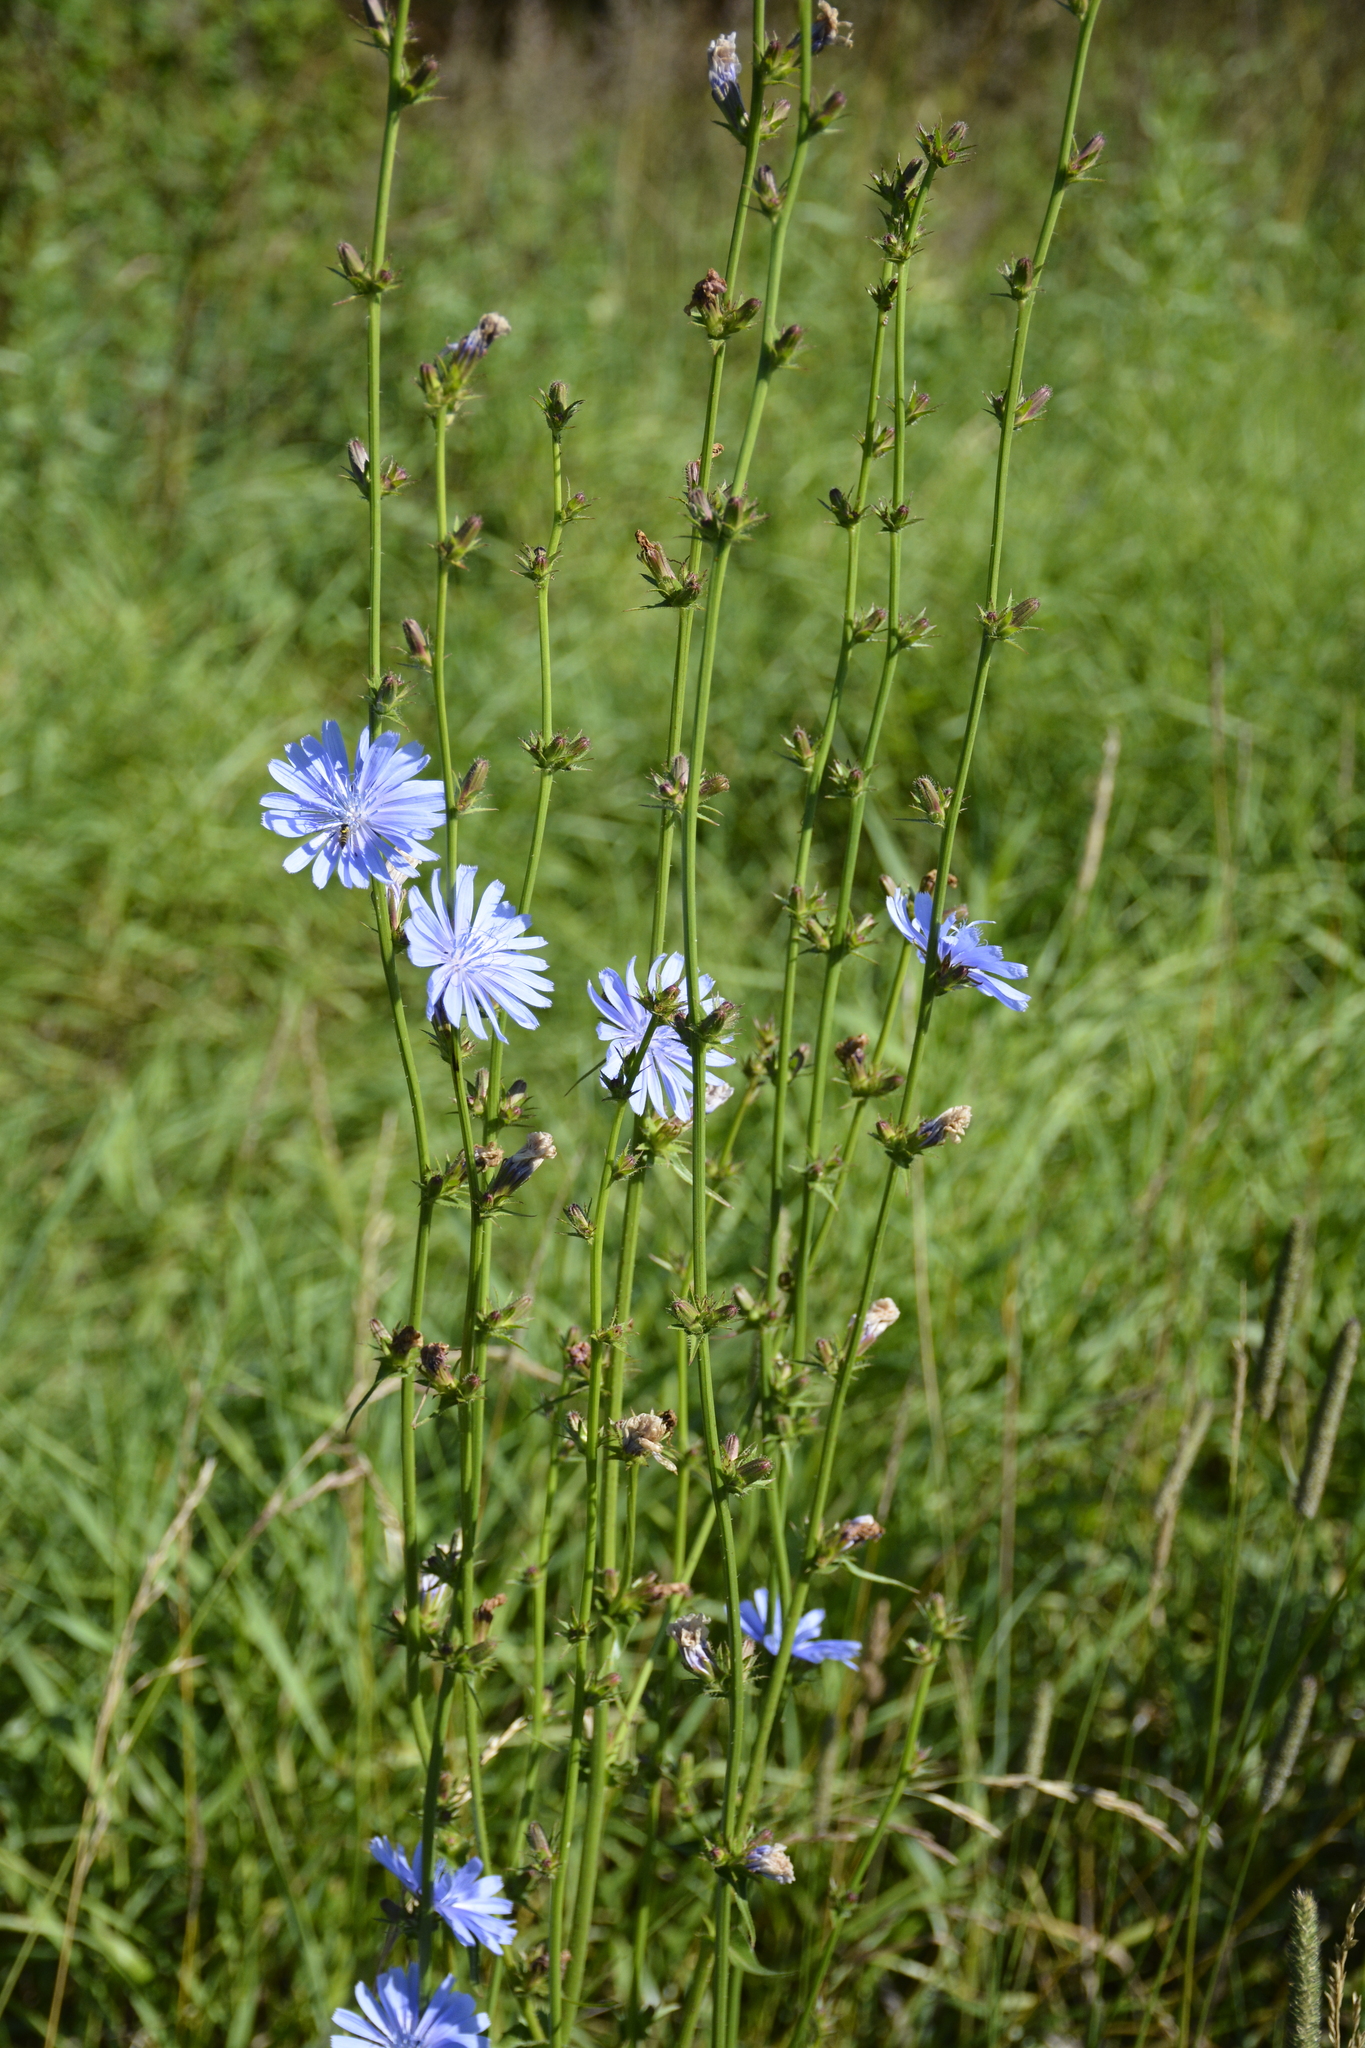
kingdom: Plantae
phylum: Tracheophyta
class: Magnoliopsida
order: Asterales
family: Asteraceae
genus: Cichorium
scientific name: Cichorium intybus
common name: Chicory
